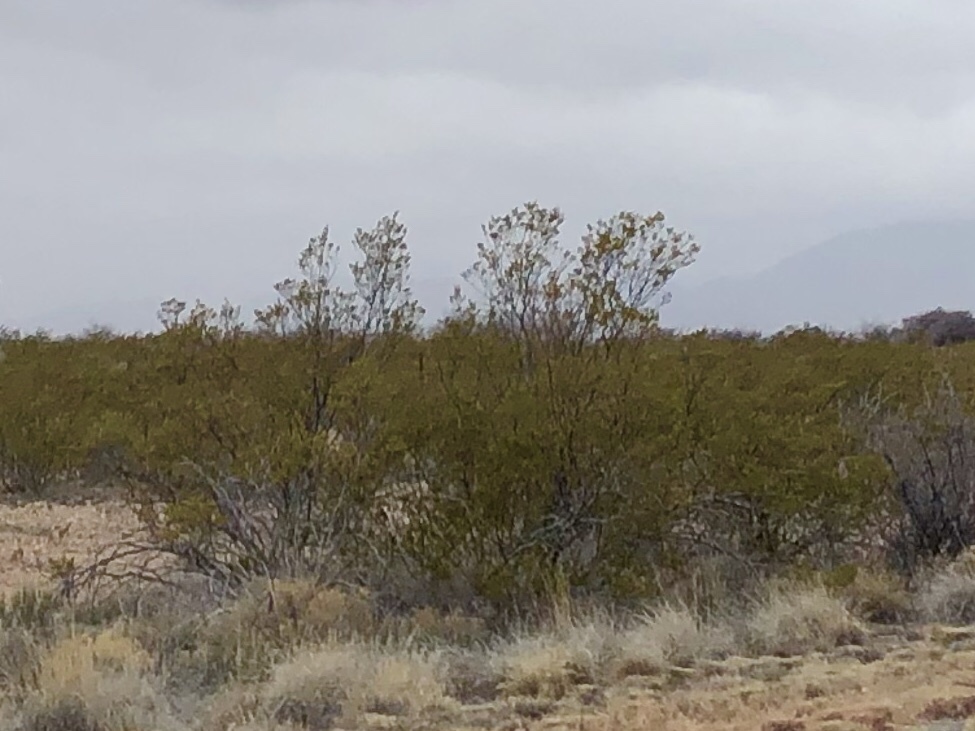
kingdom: Plantae
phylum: Tracheophyta
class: Magnoliopsida
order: Zygophyllales
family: Zygophyllaceae
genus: Larrea
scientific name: Larrea tridentata
